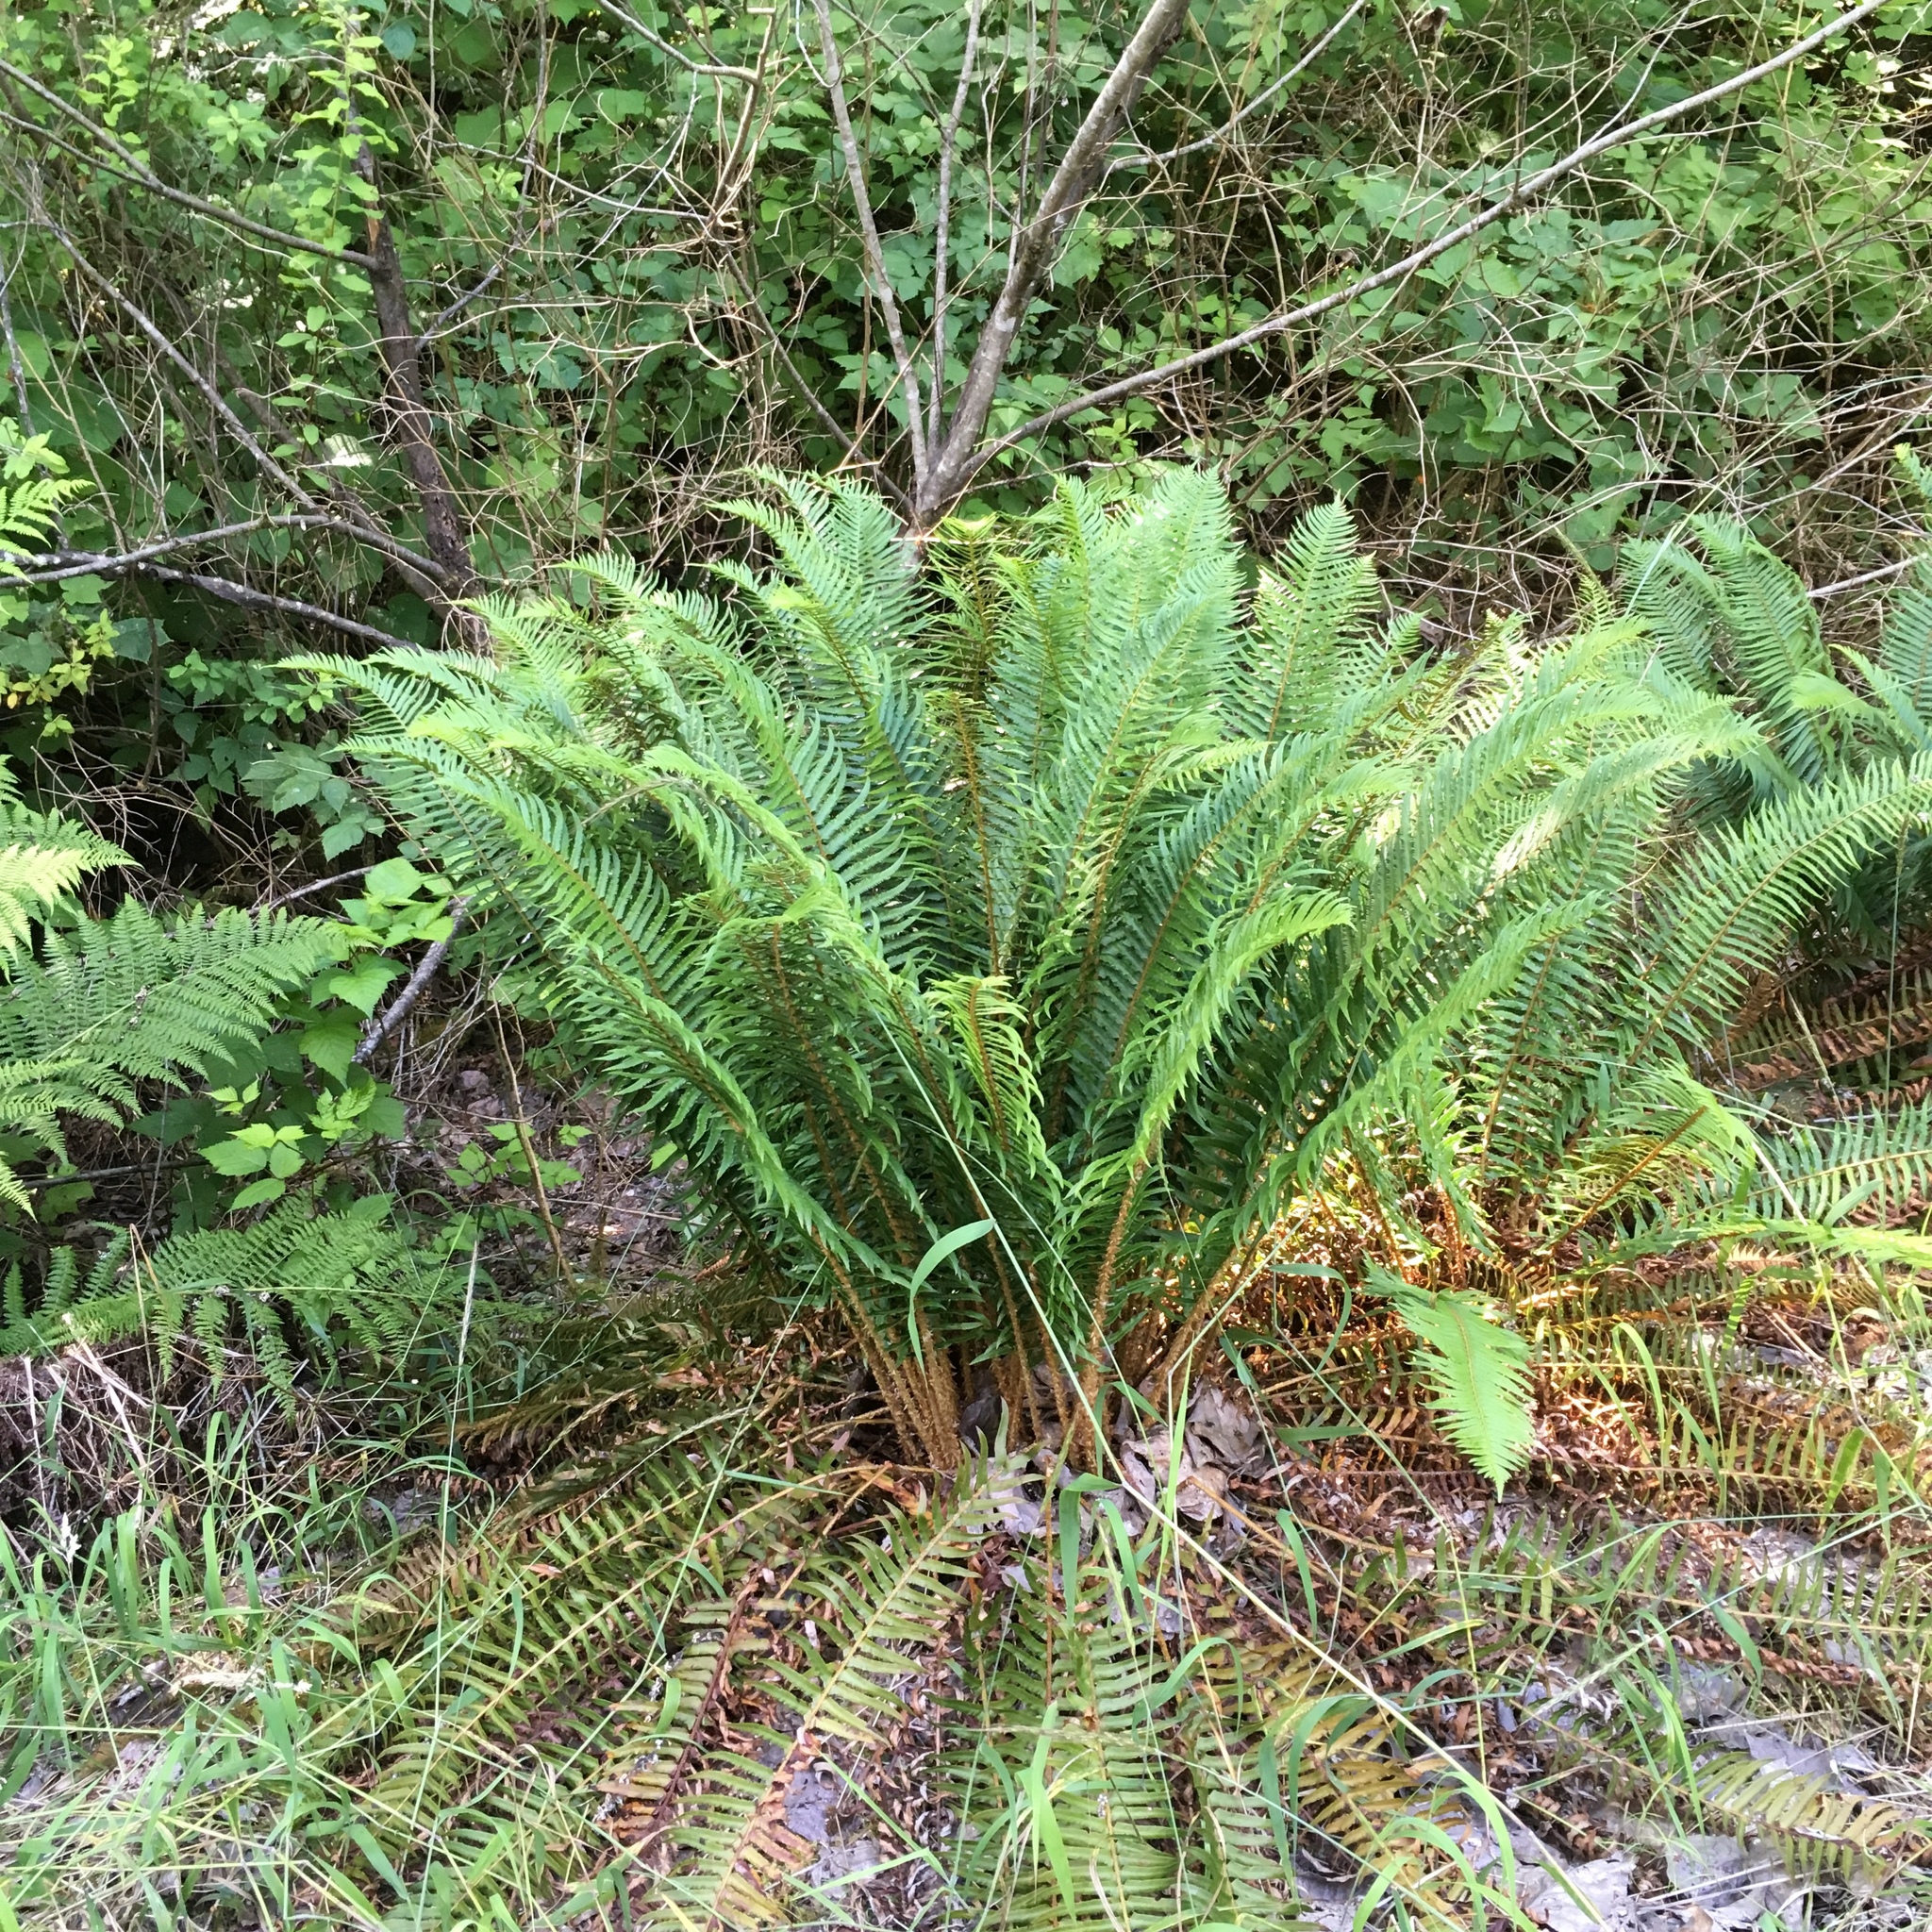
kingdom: Plantae
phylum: Tracheophyta
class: Polypodiopsida
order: Polypodiales
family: Dryopteridaceae
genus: Polystichum
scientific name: Polystichum munitum
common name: Western sword-fern
